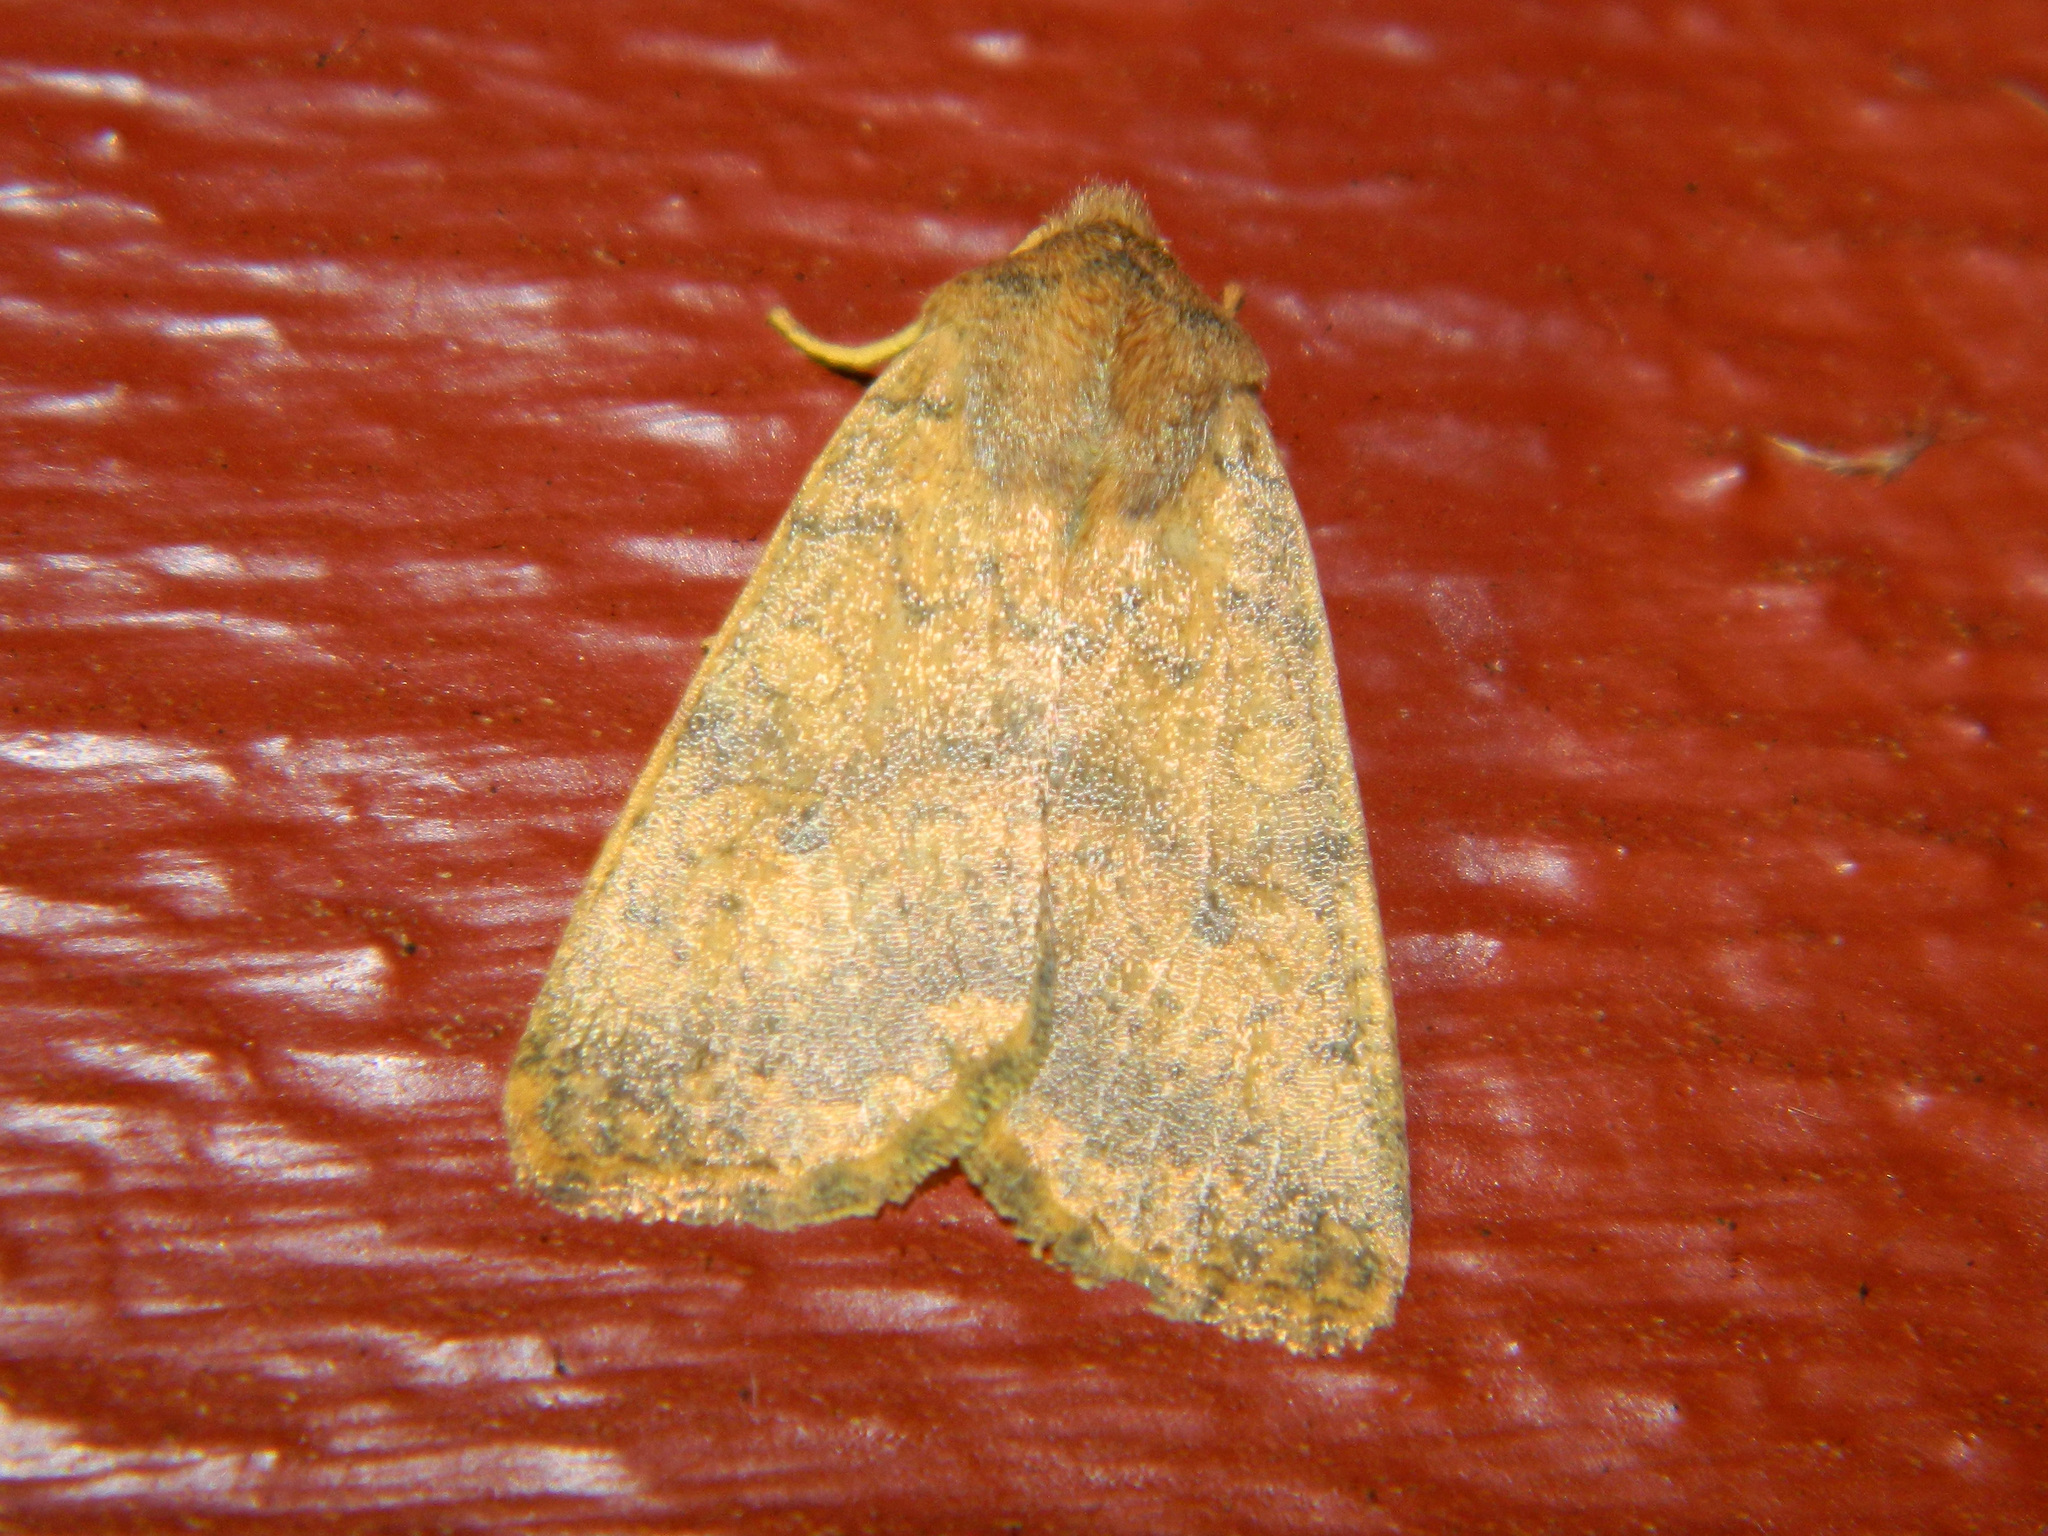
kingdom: Animalia
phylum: Arthropoda
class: Insecta
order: Lepidoptera
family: Noctuidae
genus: Agrochola
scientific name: Agrochola bicolorago
